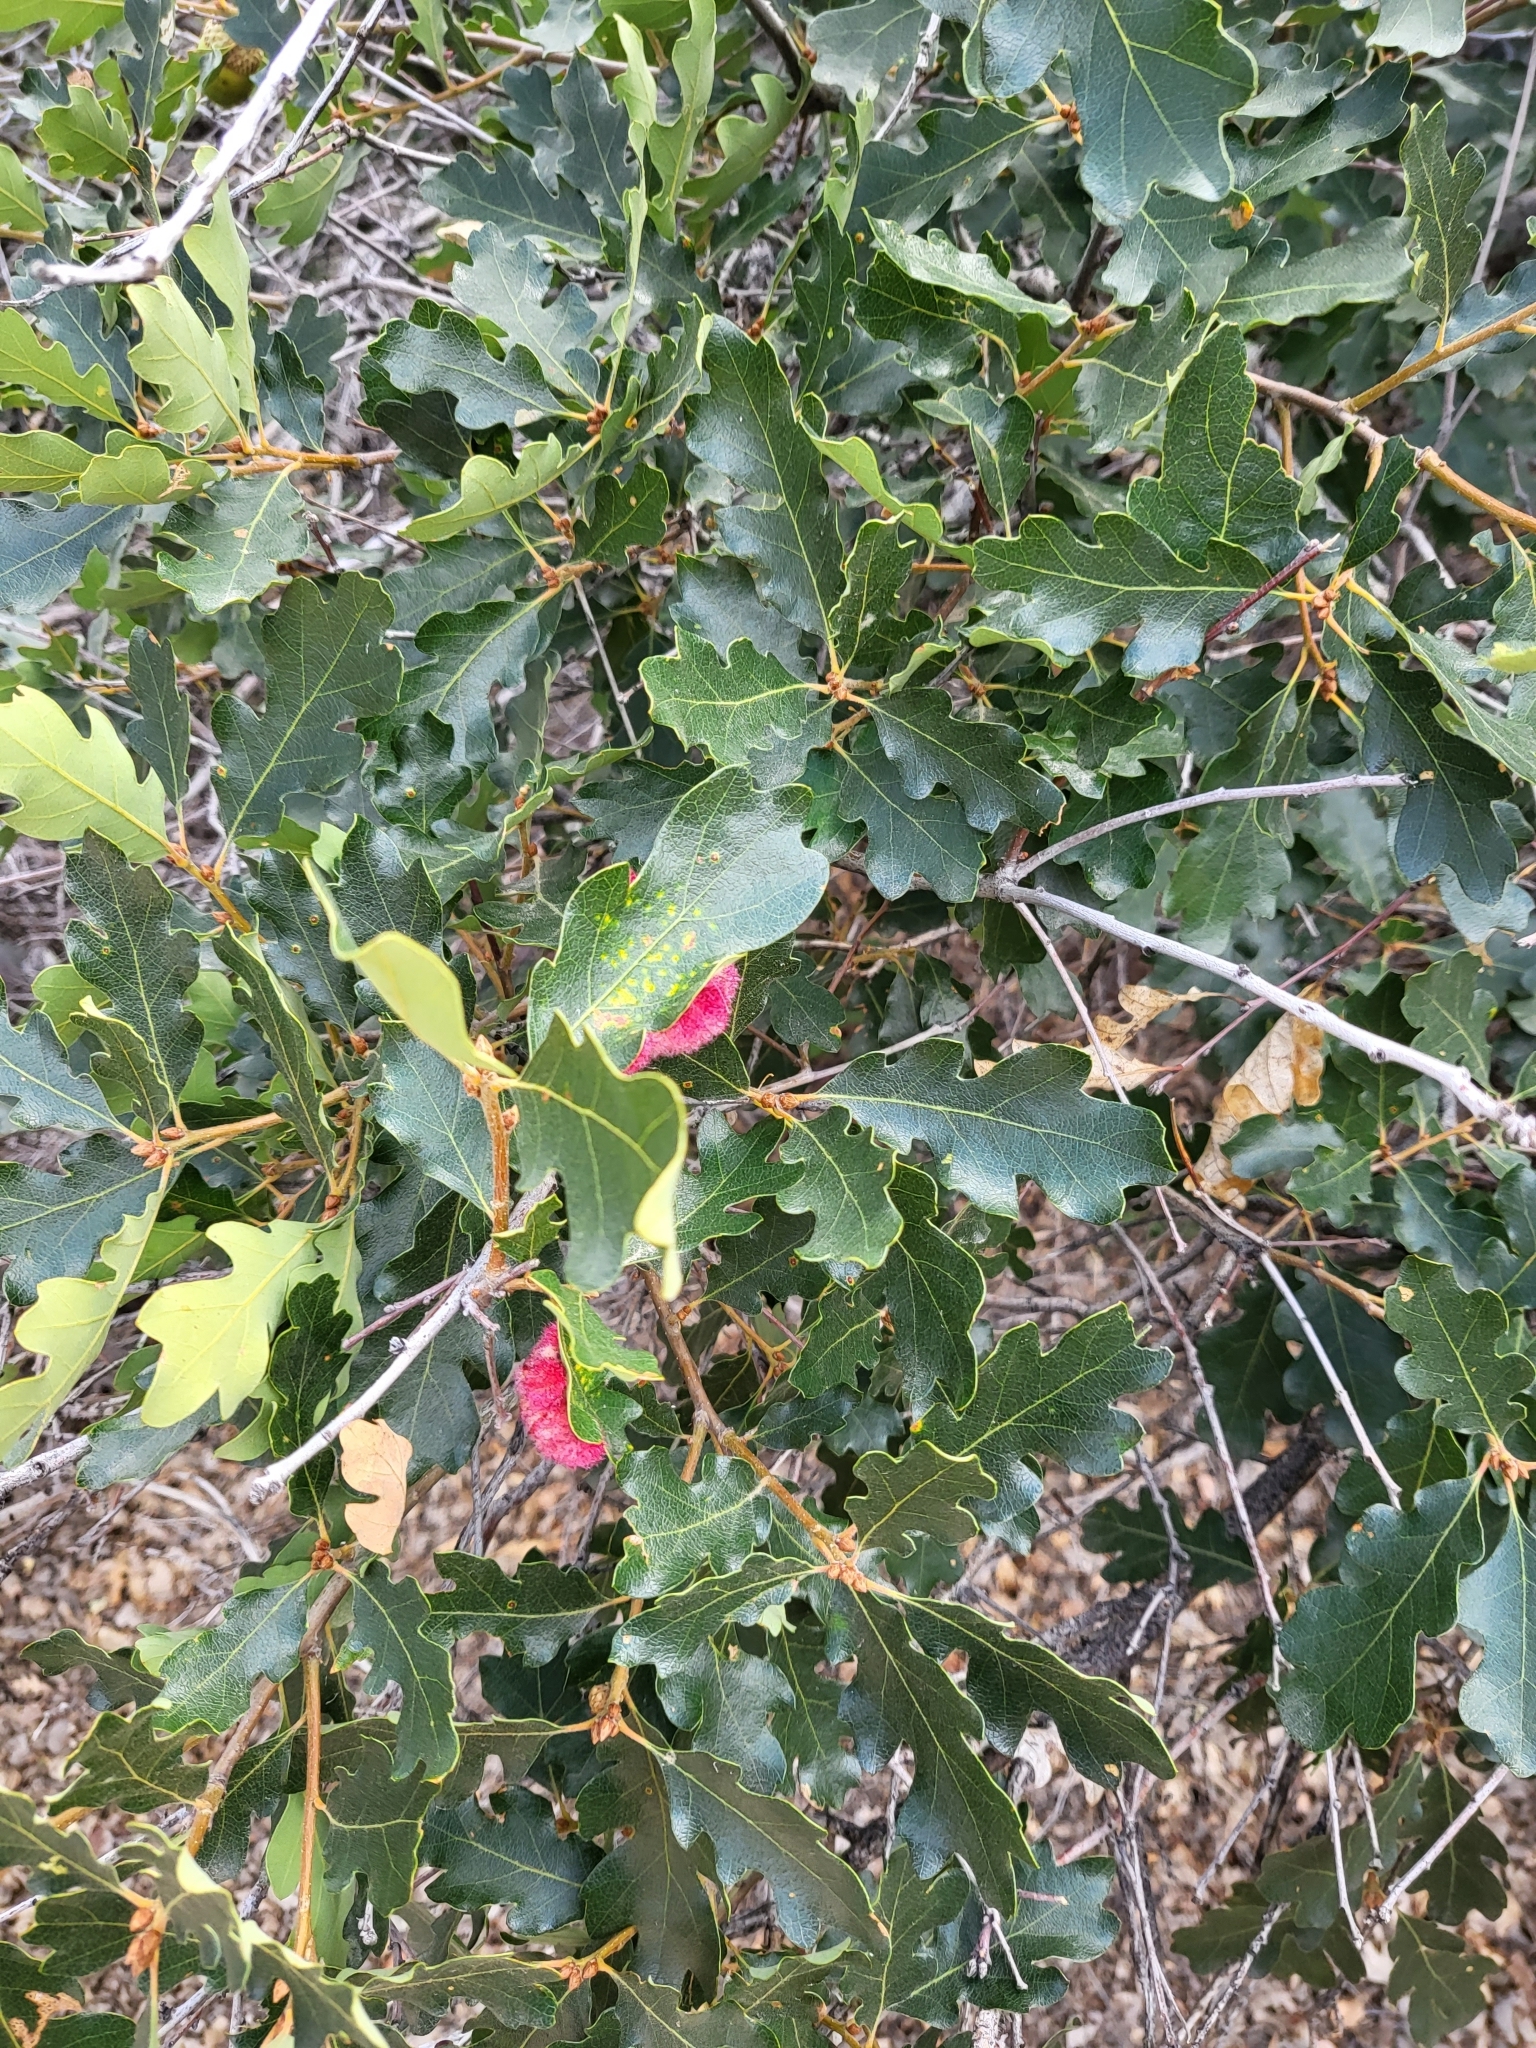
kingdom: Animalia
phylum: Arthropoda
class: Insecta
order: Hymenoptera
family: Cynipidae
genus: Andricus
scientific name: Andricus
